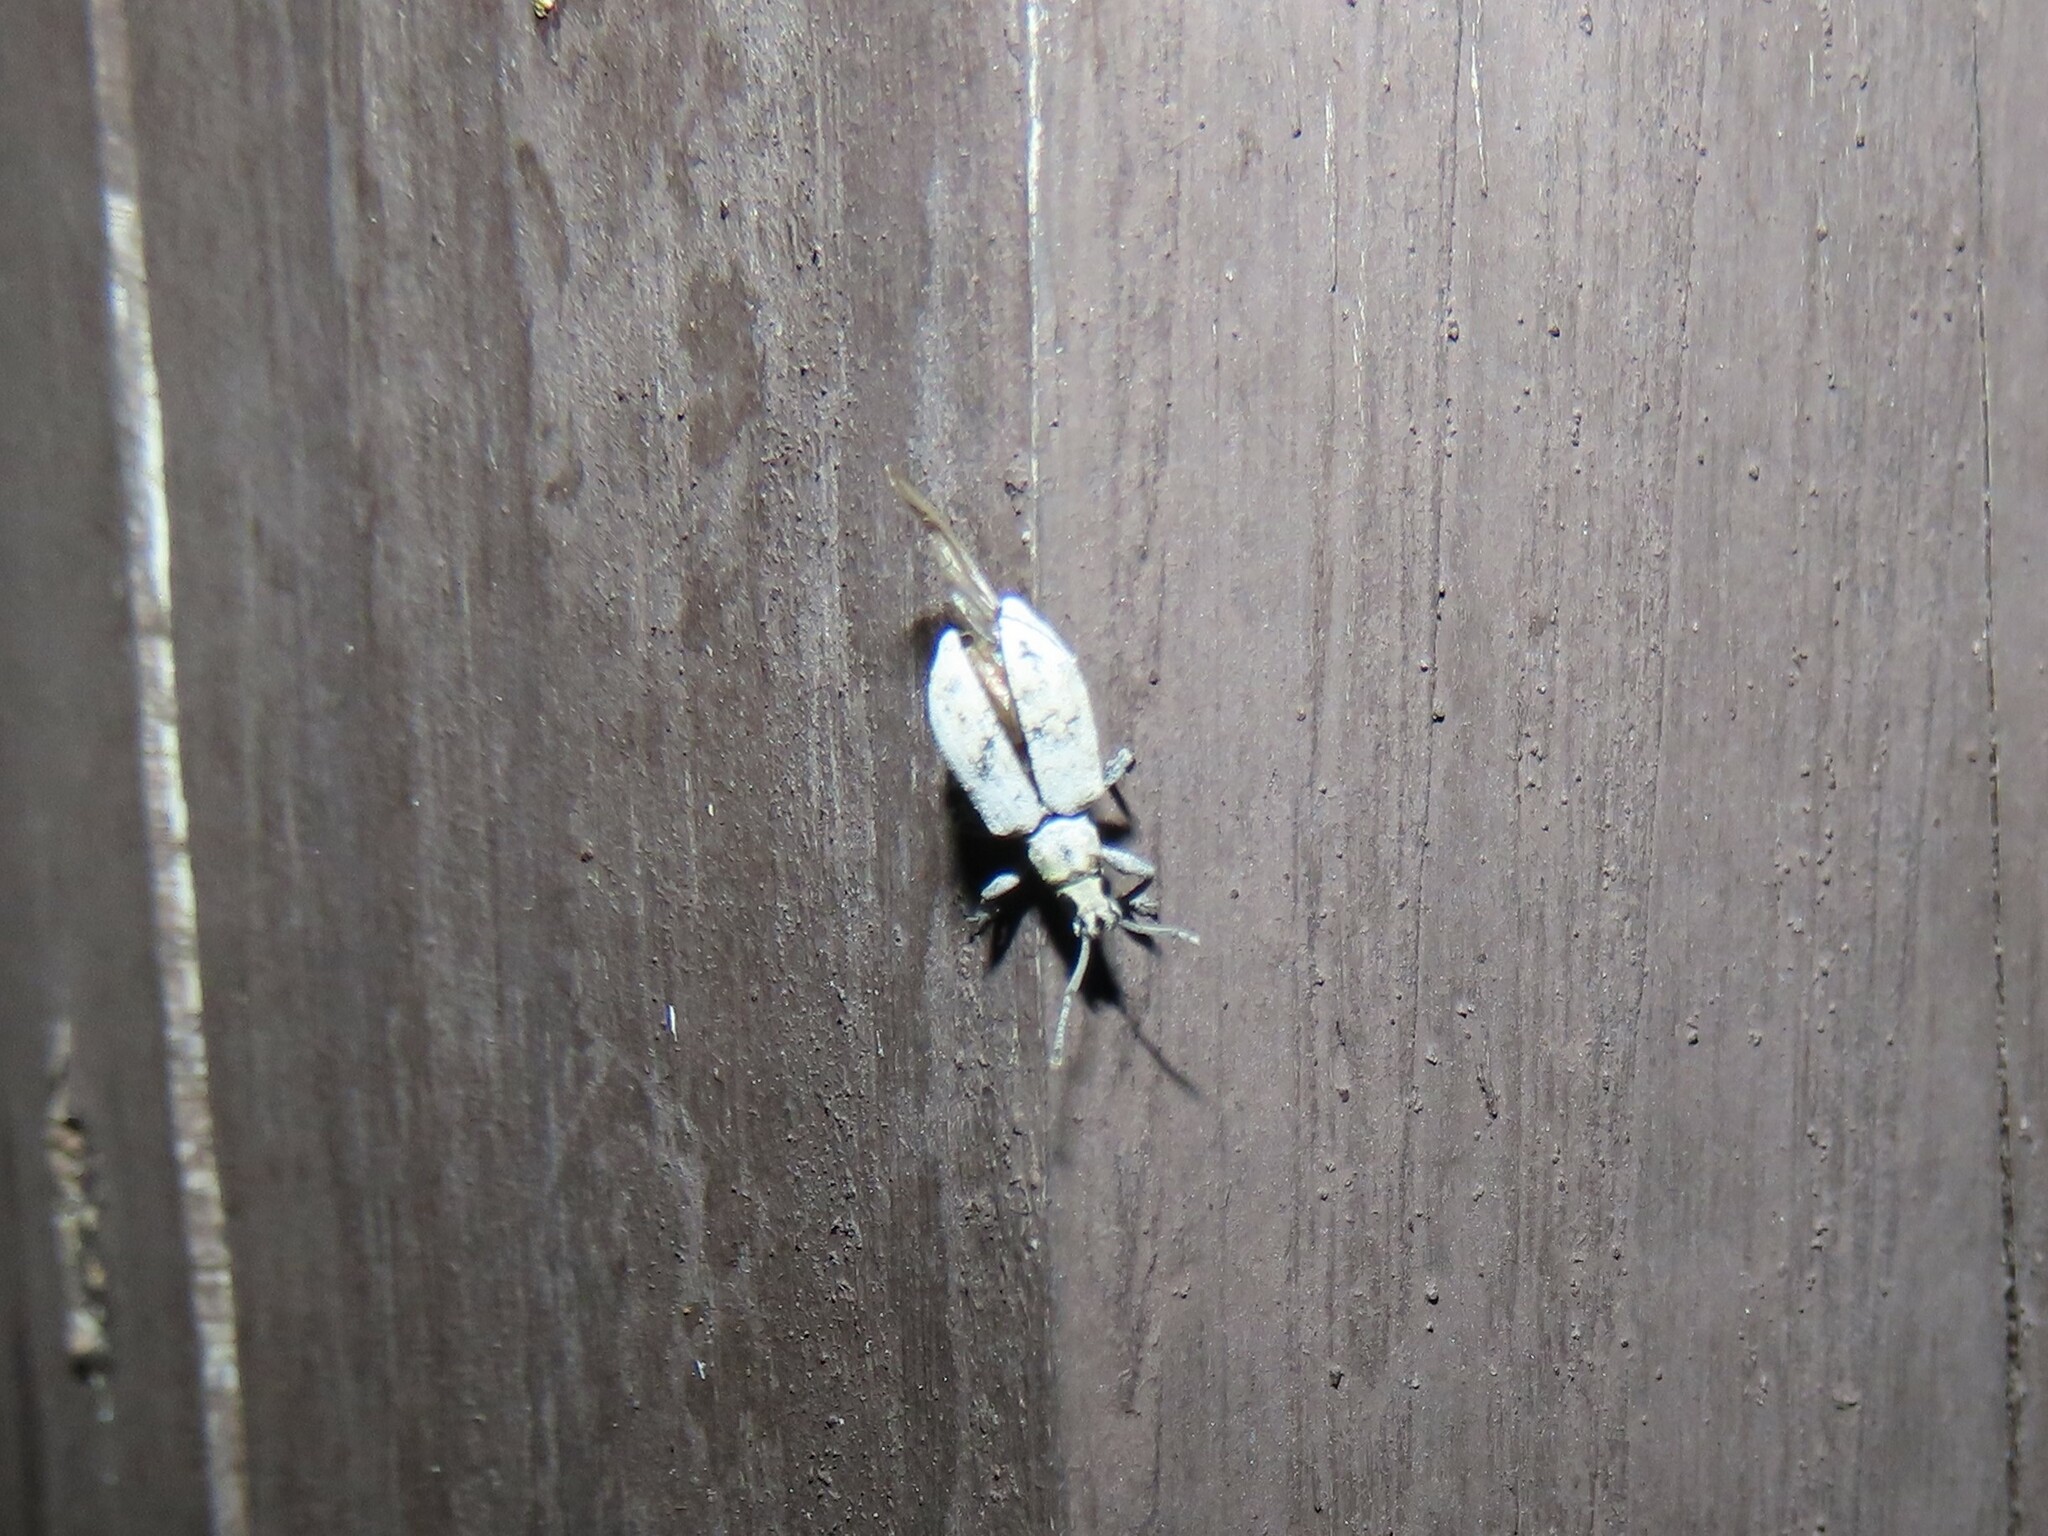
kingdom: Animalia
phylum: Arthropoda
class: Insecta
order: Coleoptera
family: Curculionidae
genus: Myllocerus
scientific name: Myllocerus undecimpustulatus
